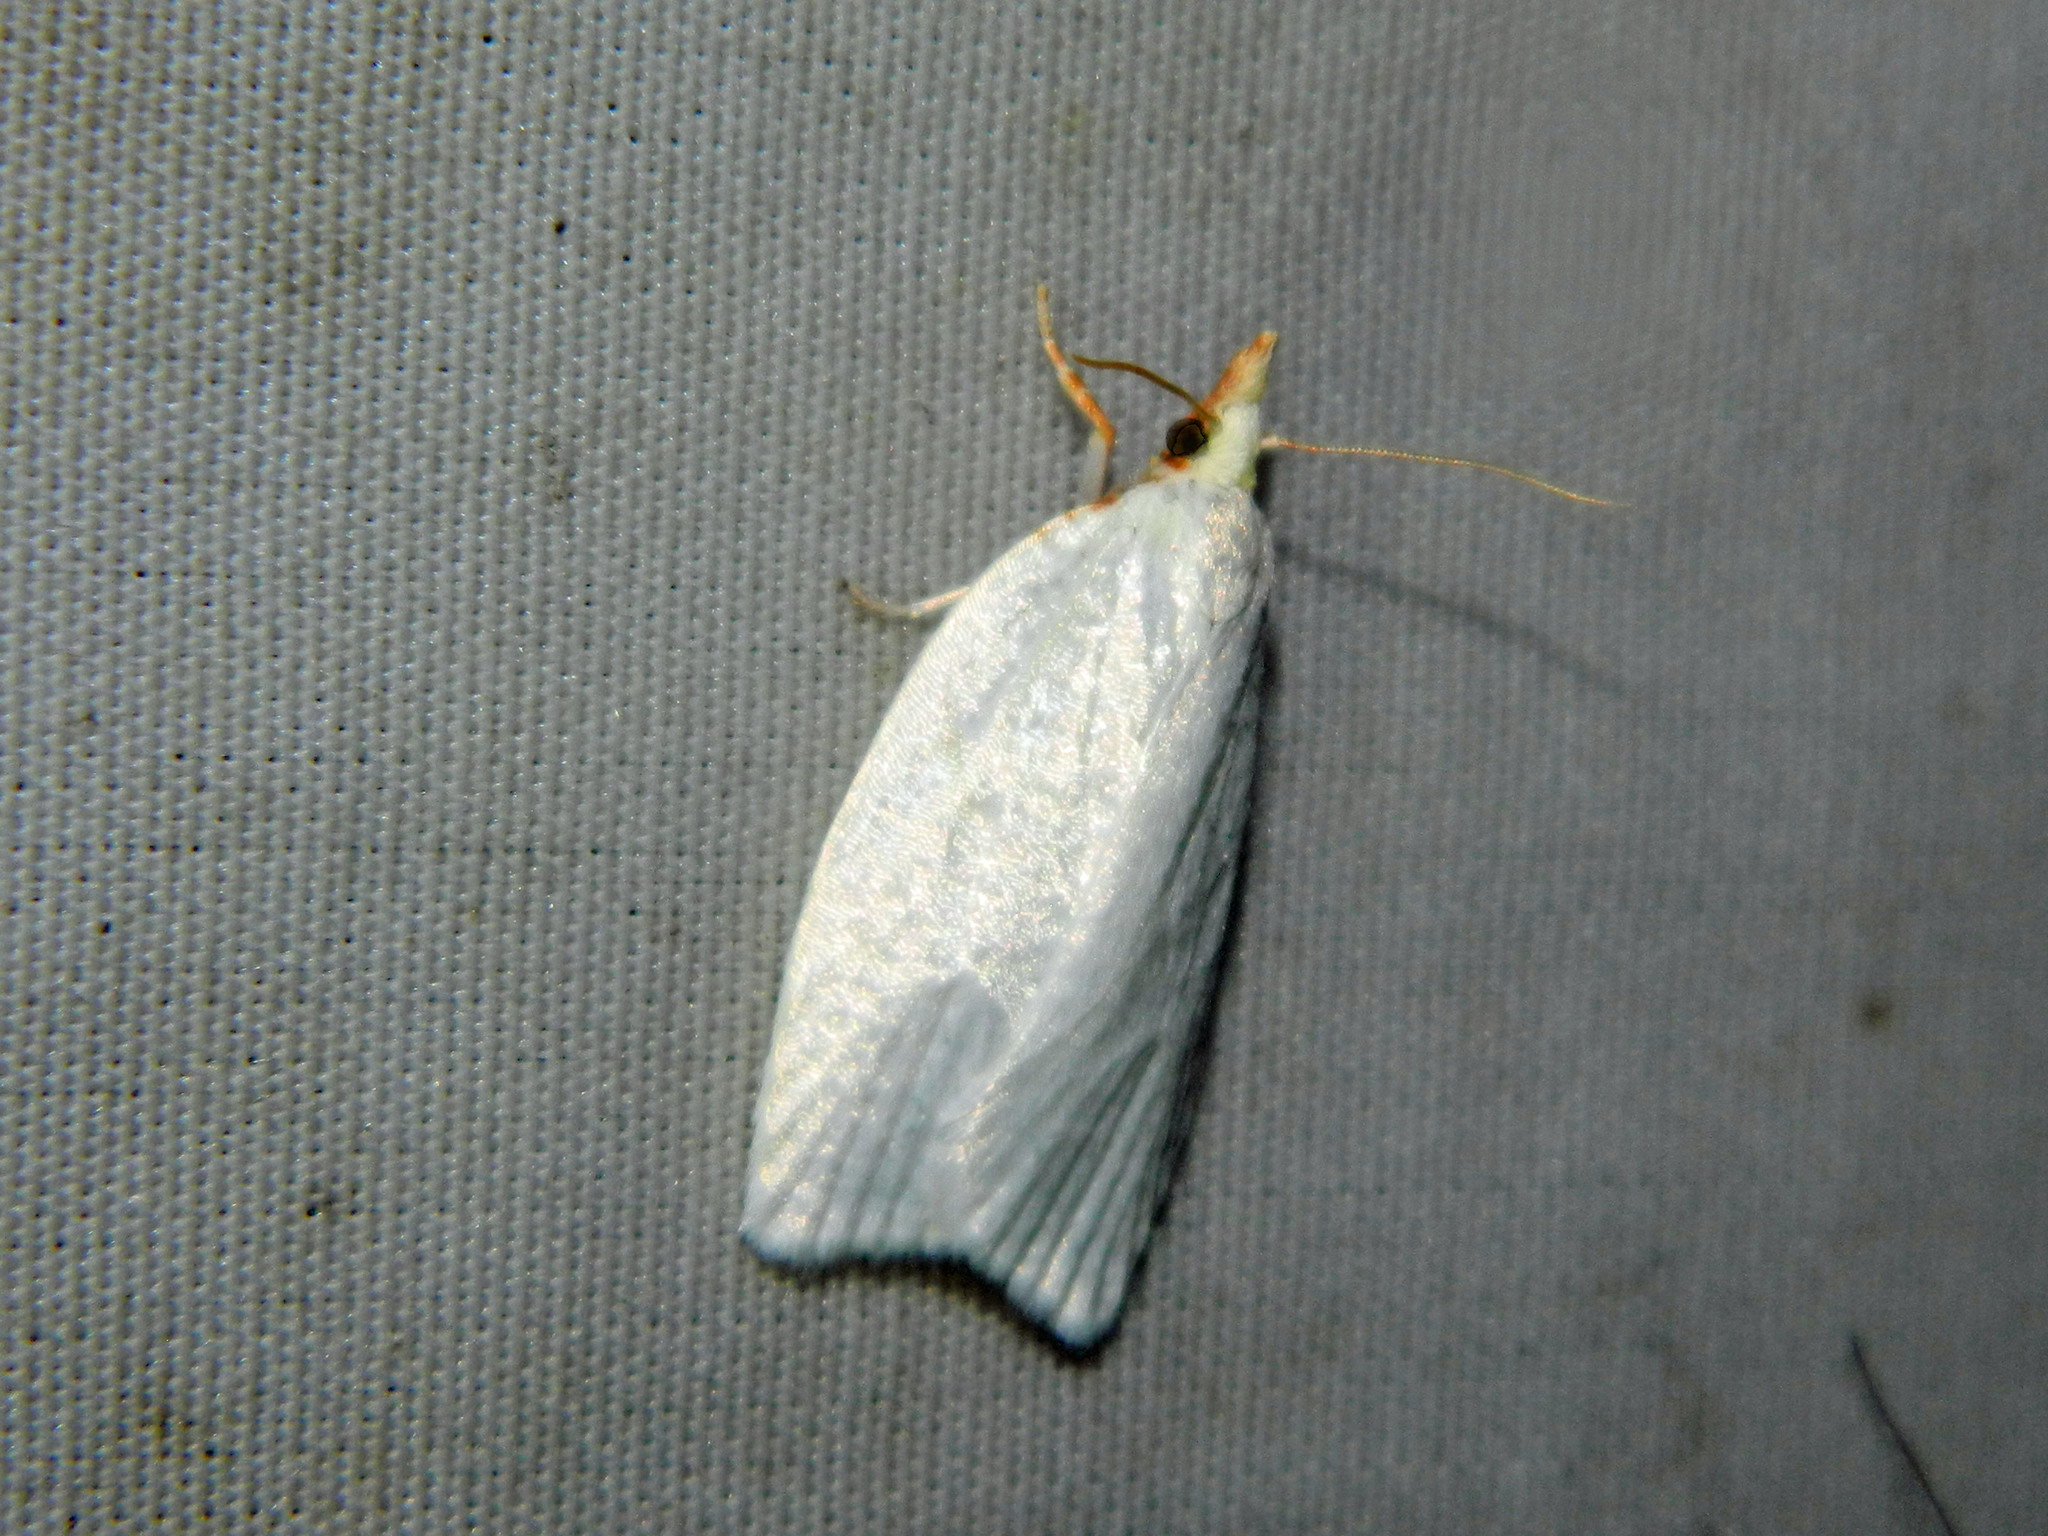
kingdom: Animalia
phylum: Arthropoda
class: Insecta
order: Lepidoptera
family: Tortricidae
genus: Cenopis
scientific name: Cenopis pettitana
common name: Maple-basswood leafroller moth
